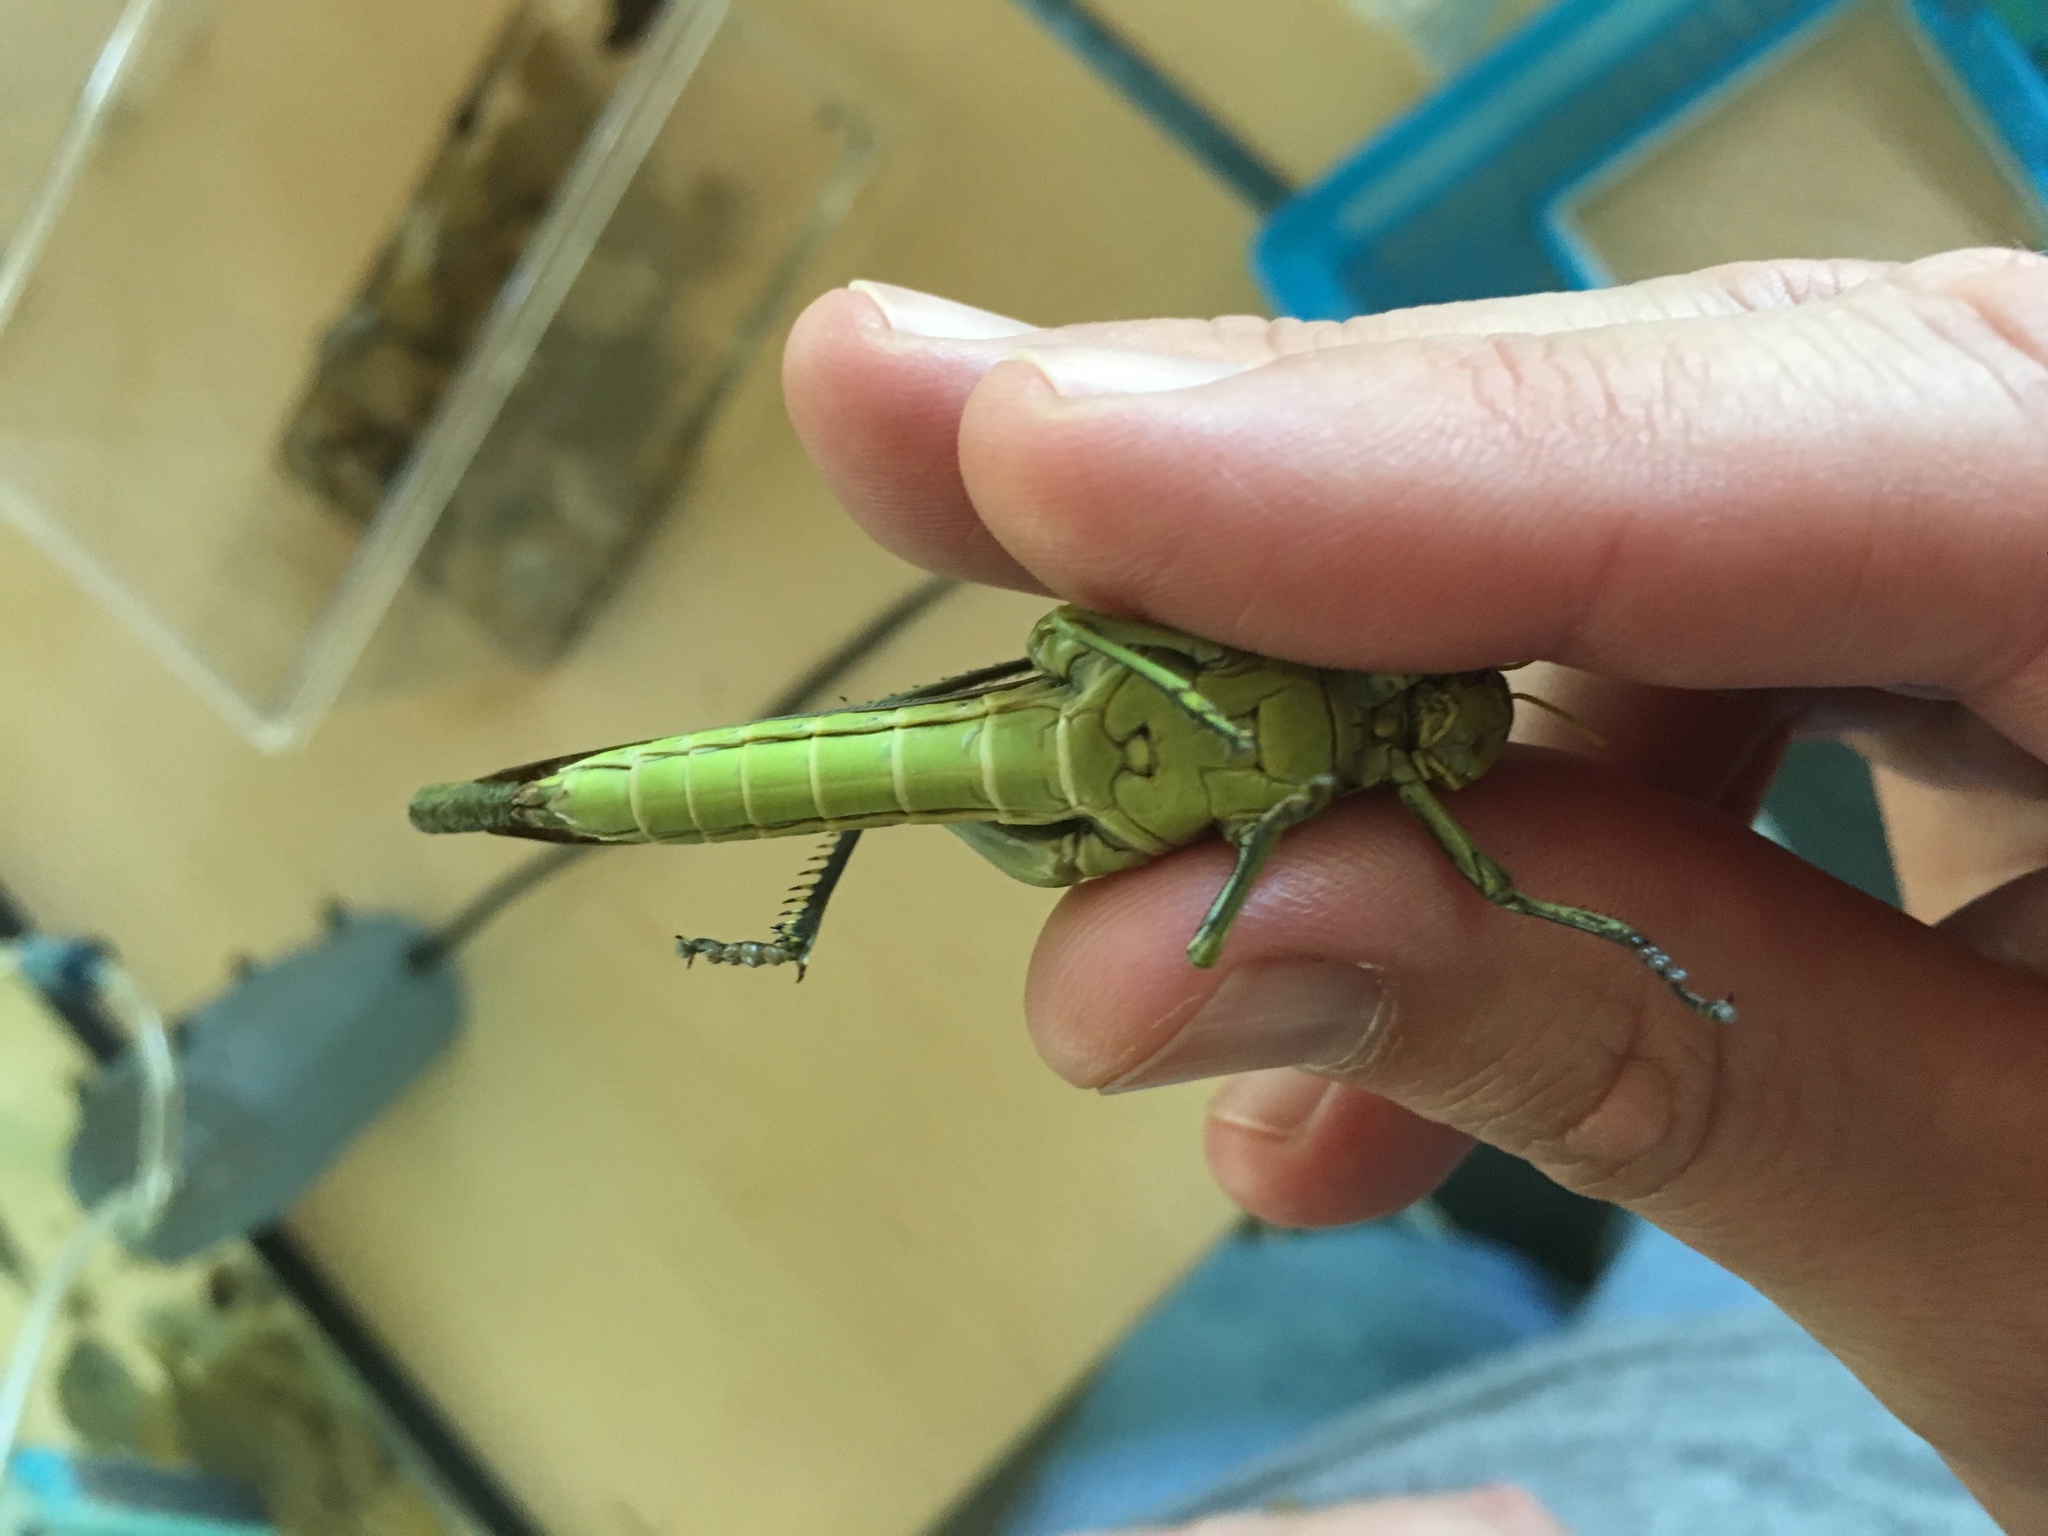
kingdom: Animalia
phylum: Arthropoda
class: Insecta
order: Orthoptera
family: Acrididae
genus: Schistocerca
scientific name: Schistocerca obscura
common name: Obscure bird grasshopper
